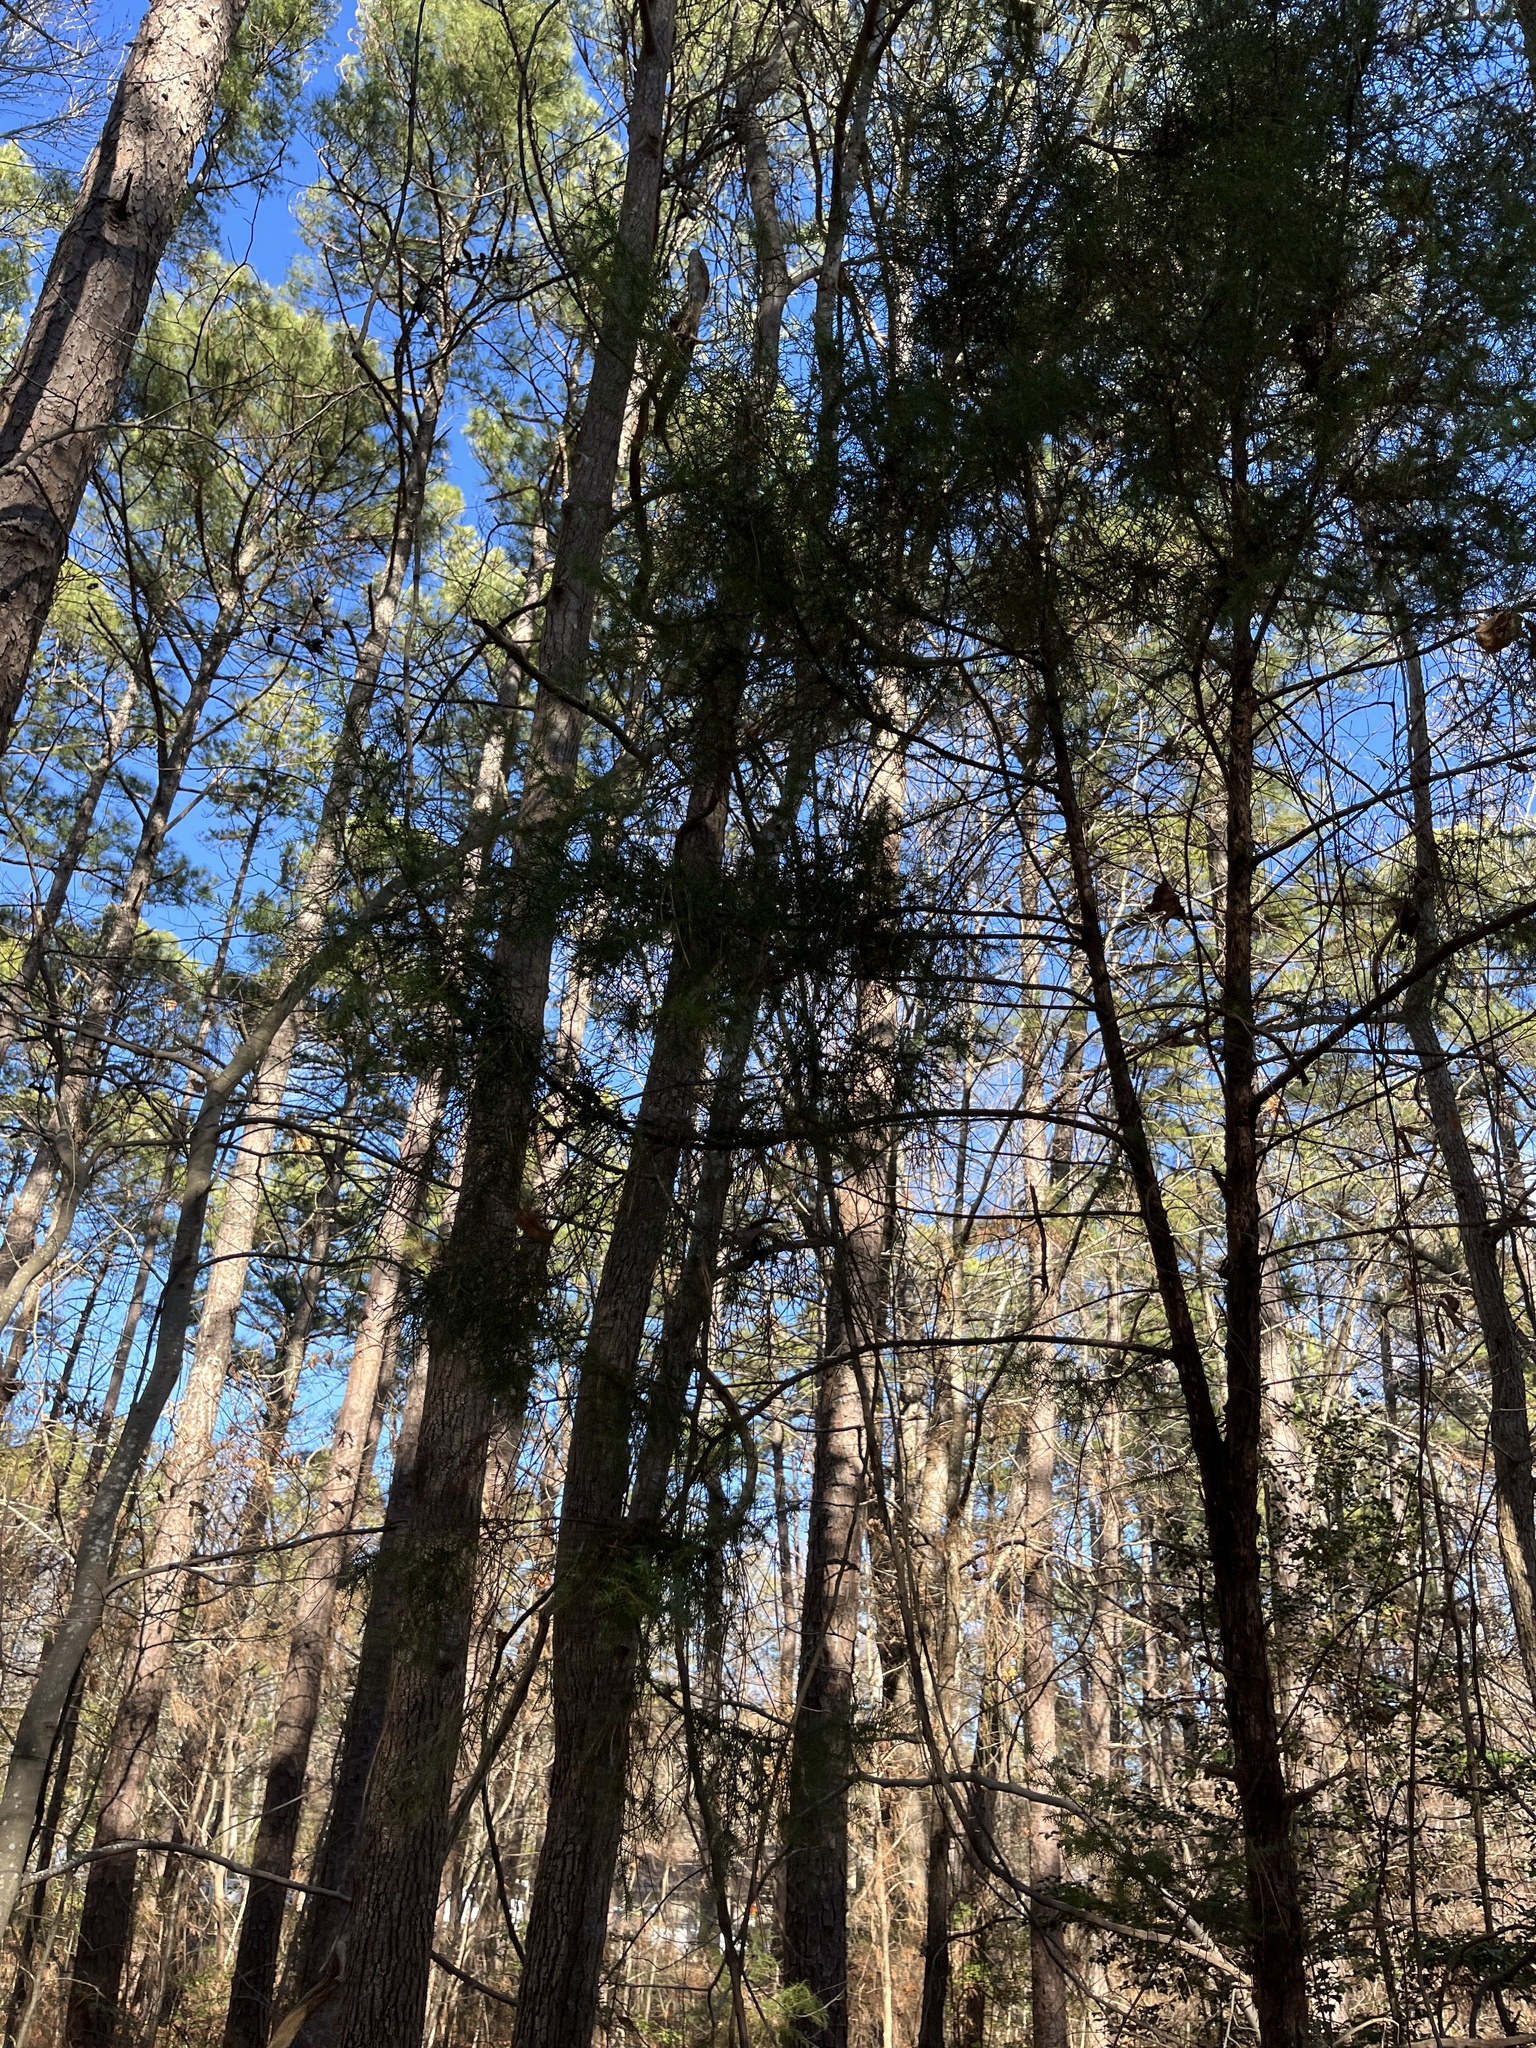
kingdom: Plantae
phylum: Tracheophyta
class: Pinopsida
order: Pinales
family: Cupressaceae
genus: Juniperus
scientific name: Juniperus virginiana
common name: Red juniper
